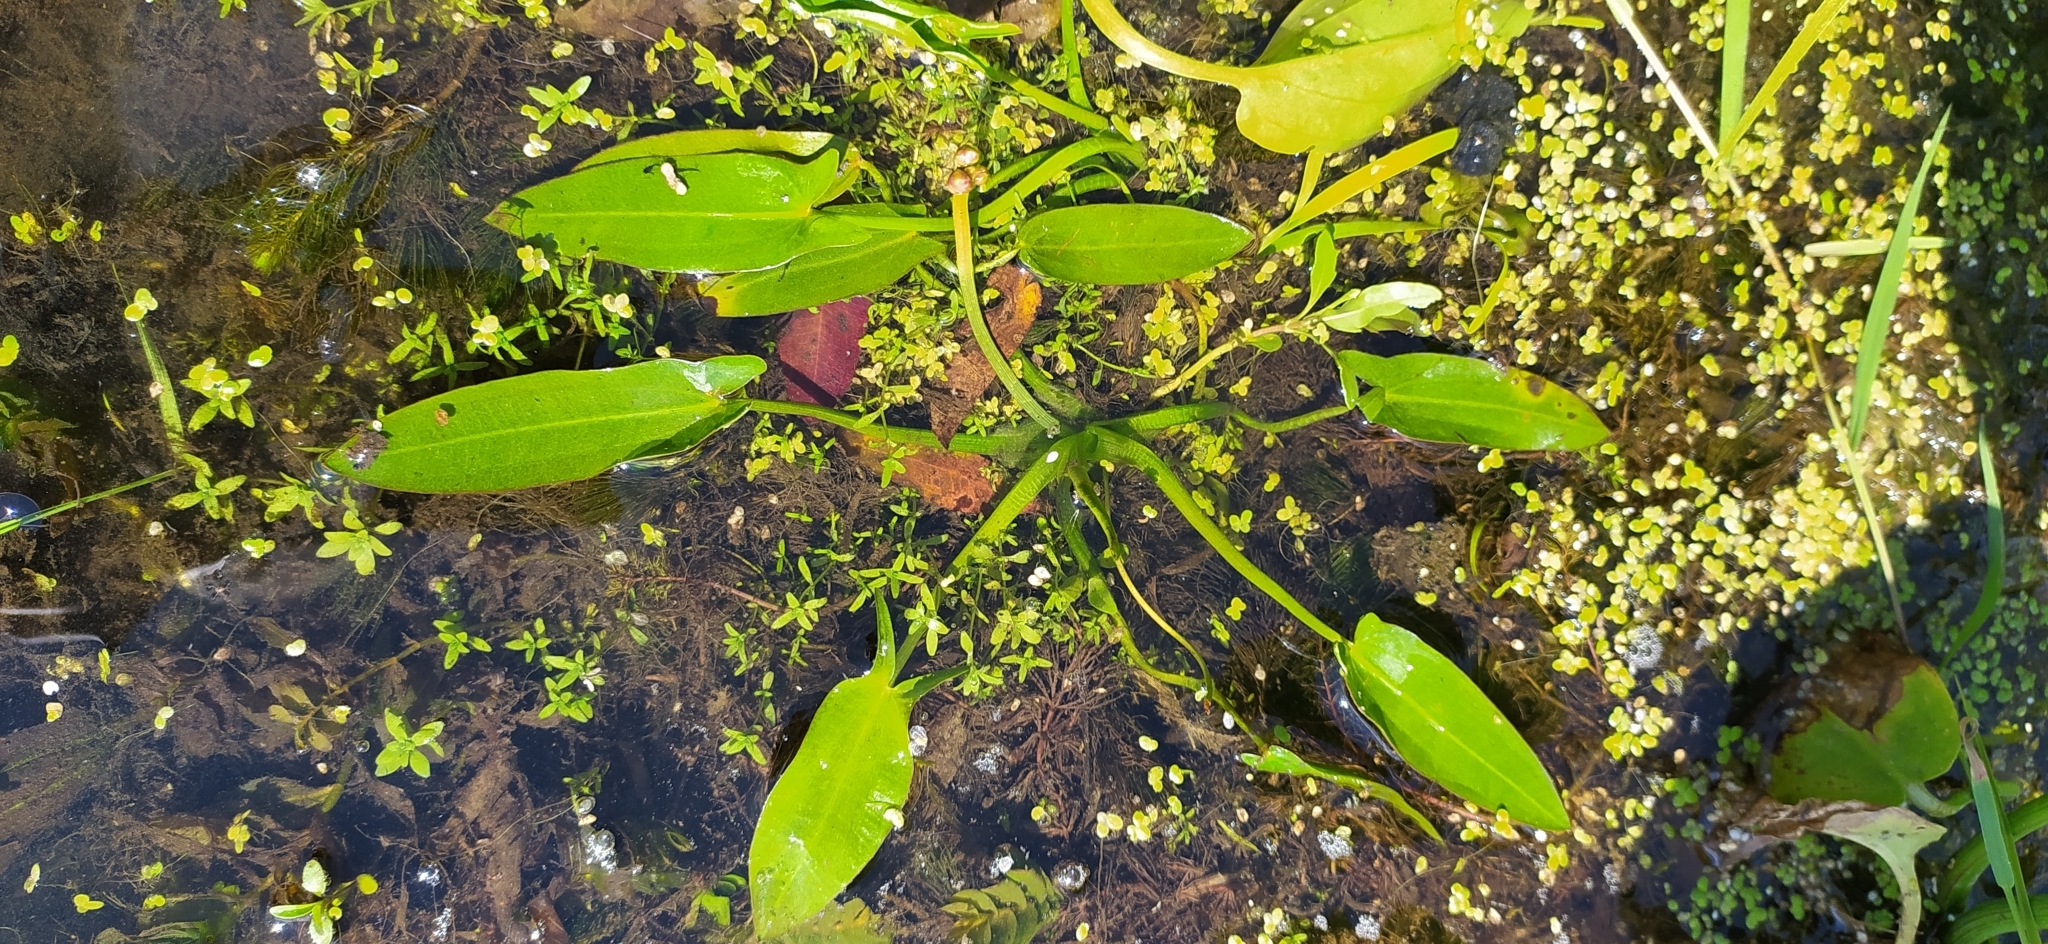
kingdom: Plantae
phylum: Tracheophyta
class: Liliopsida
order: Alismatales
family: Alismataceae
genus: Sagittaria
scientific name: Sagittaria natans
